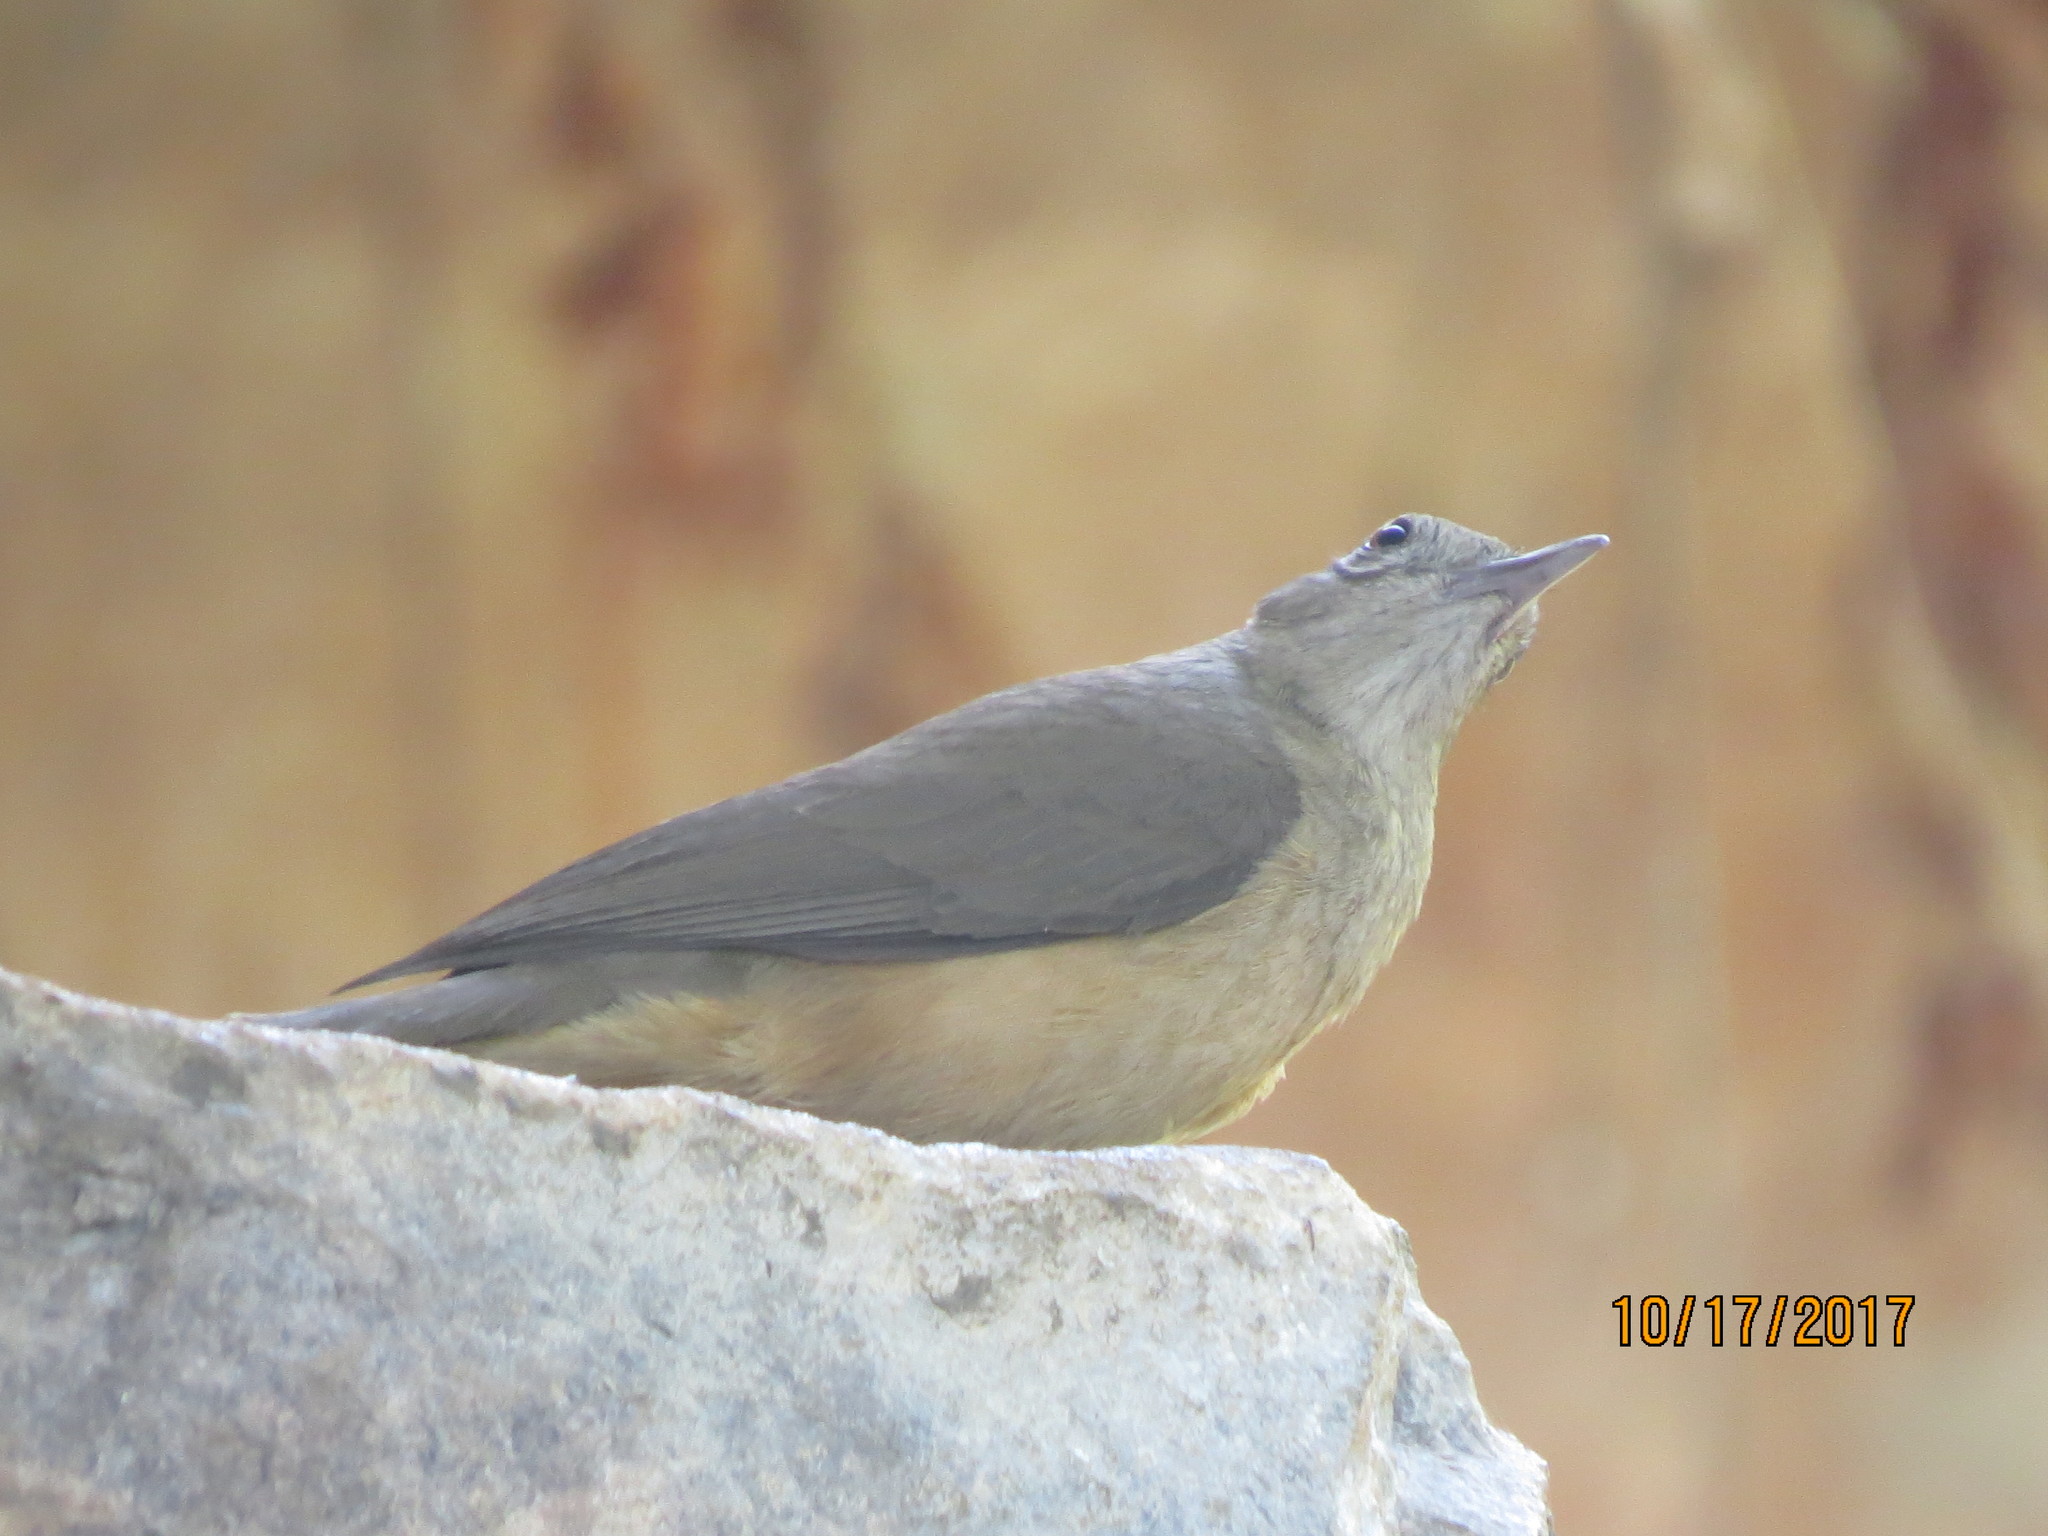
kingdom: Animalia
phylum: Chordata
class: Aves
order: Passeriformes
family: Pachycephalidae
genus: Colluricincla
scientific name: Colluricincla woodwardi
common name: Sandstone shrikethrush
